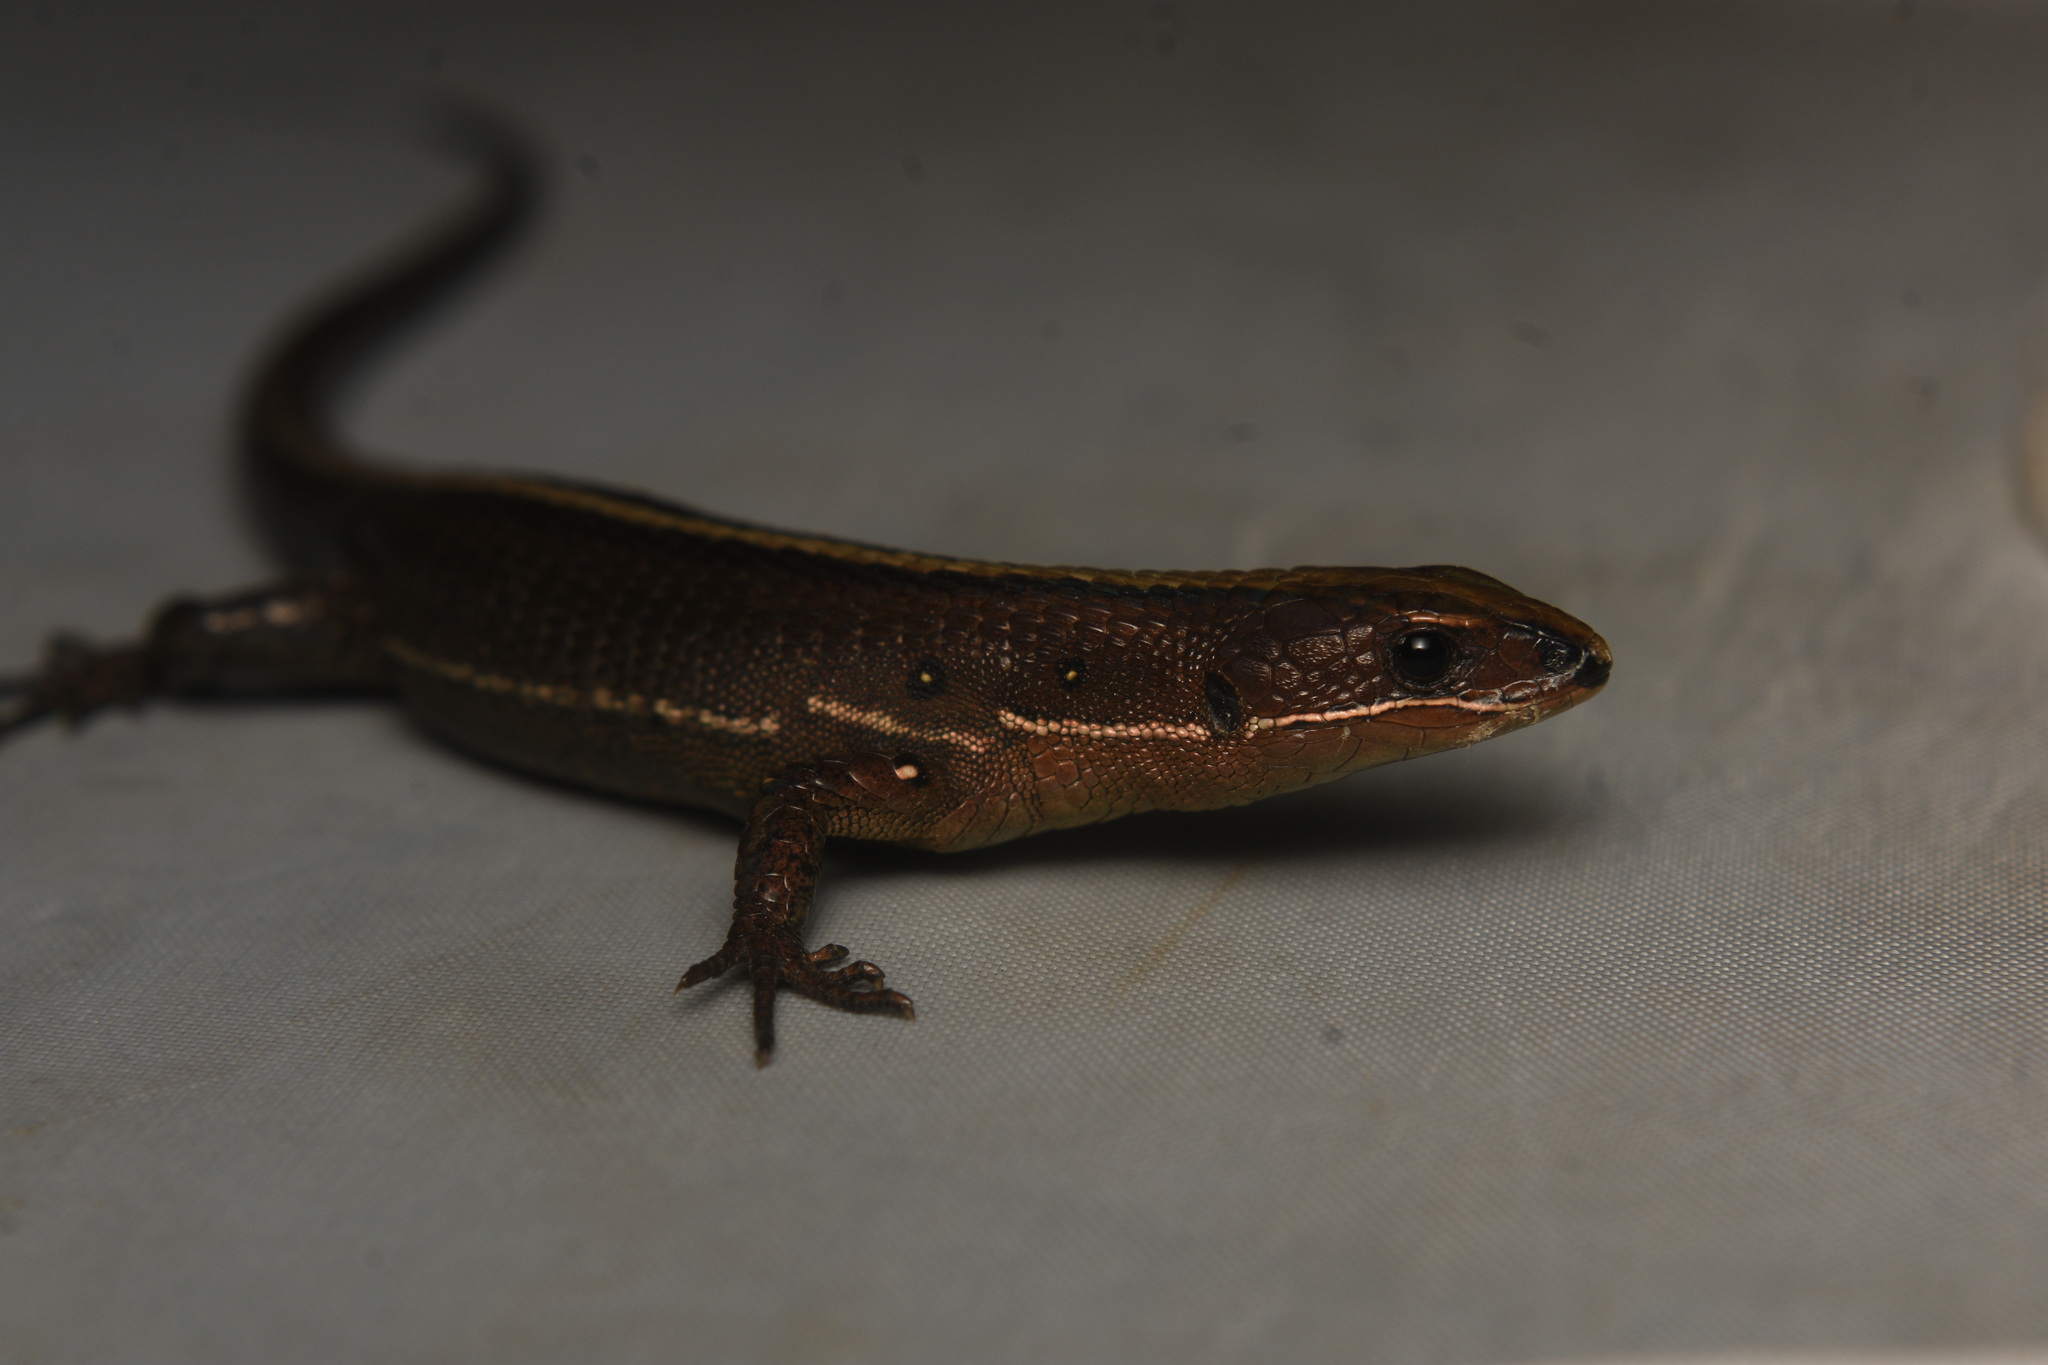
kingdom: Animalia
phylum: Chordata
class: Squamata
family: Gymnophthalmidae
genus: Pholidobolus
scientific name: Pholidobolus vertebralis
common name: Brown prionodactylus
